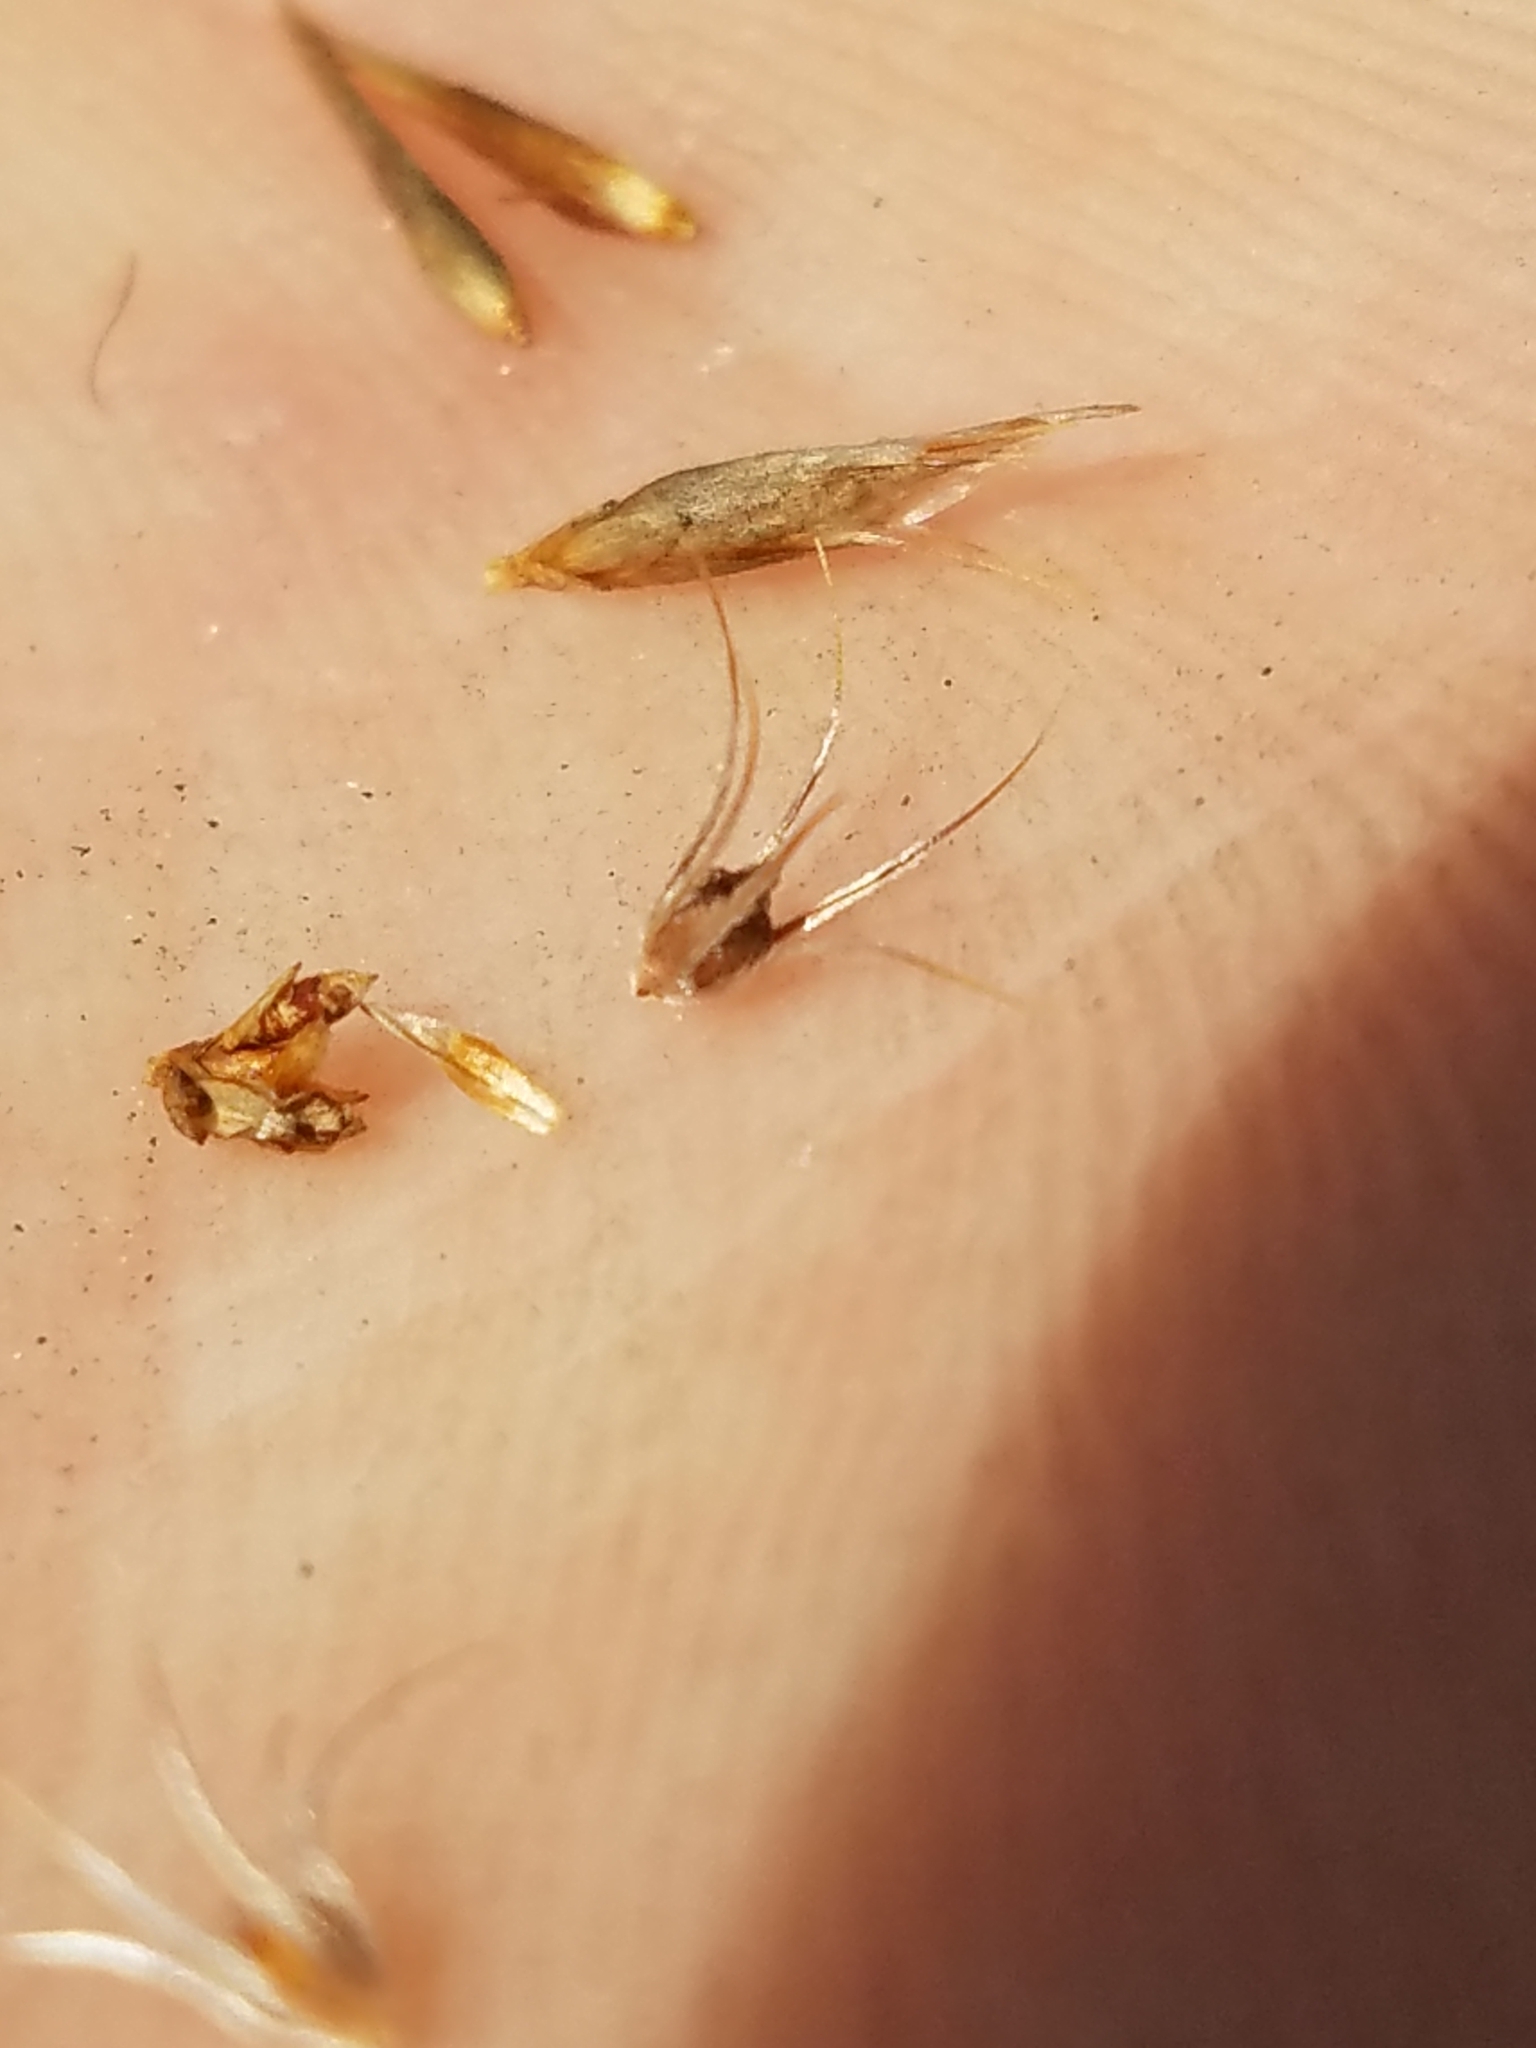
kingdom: Plantae
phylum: Tracheophyta
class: Liliopsida
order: Poales
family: Cyperaceae
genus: Rhynchospora
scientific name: Rhynchospora megaplumosa
